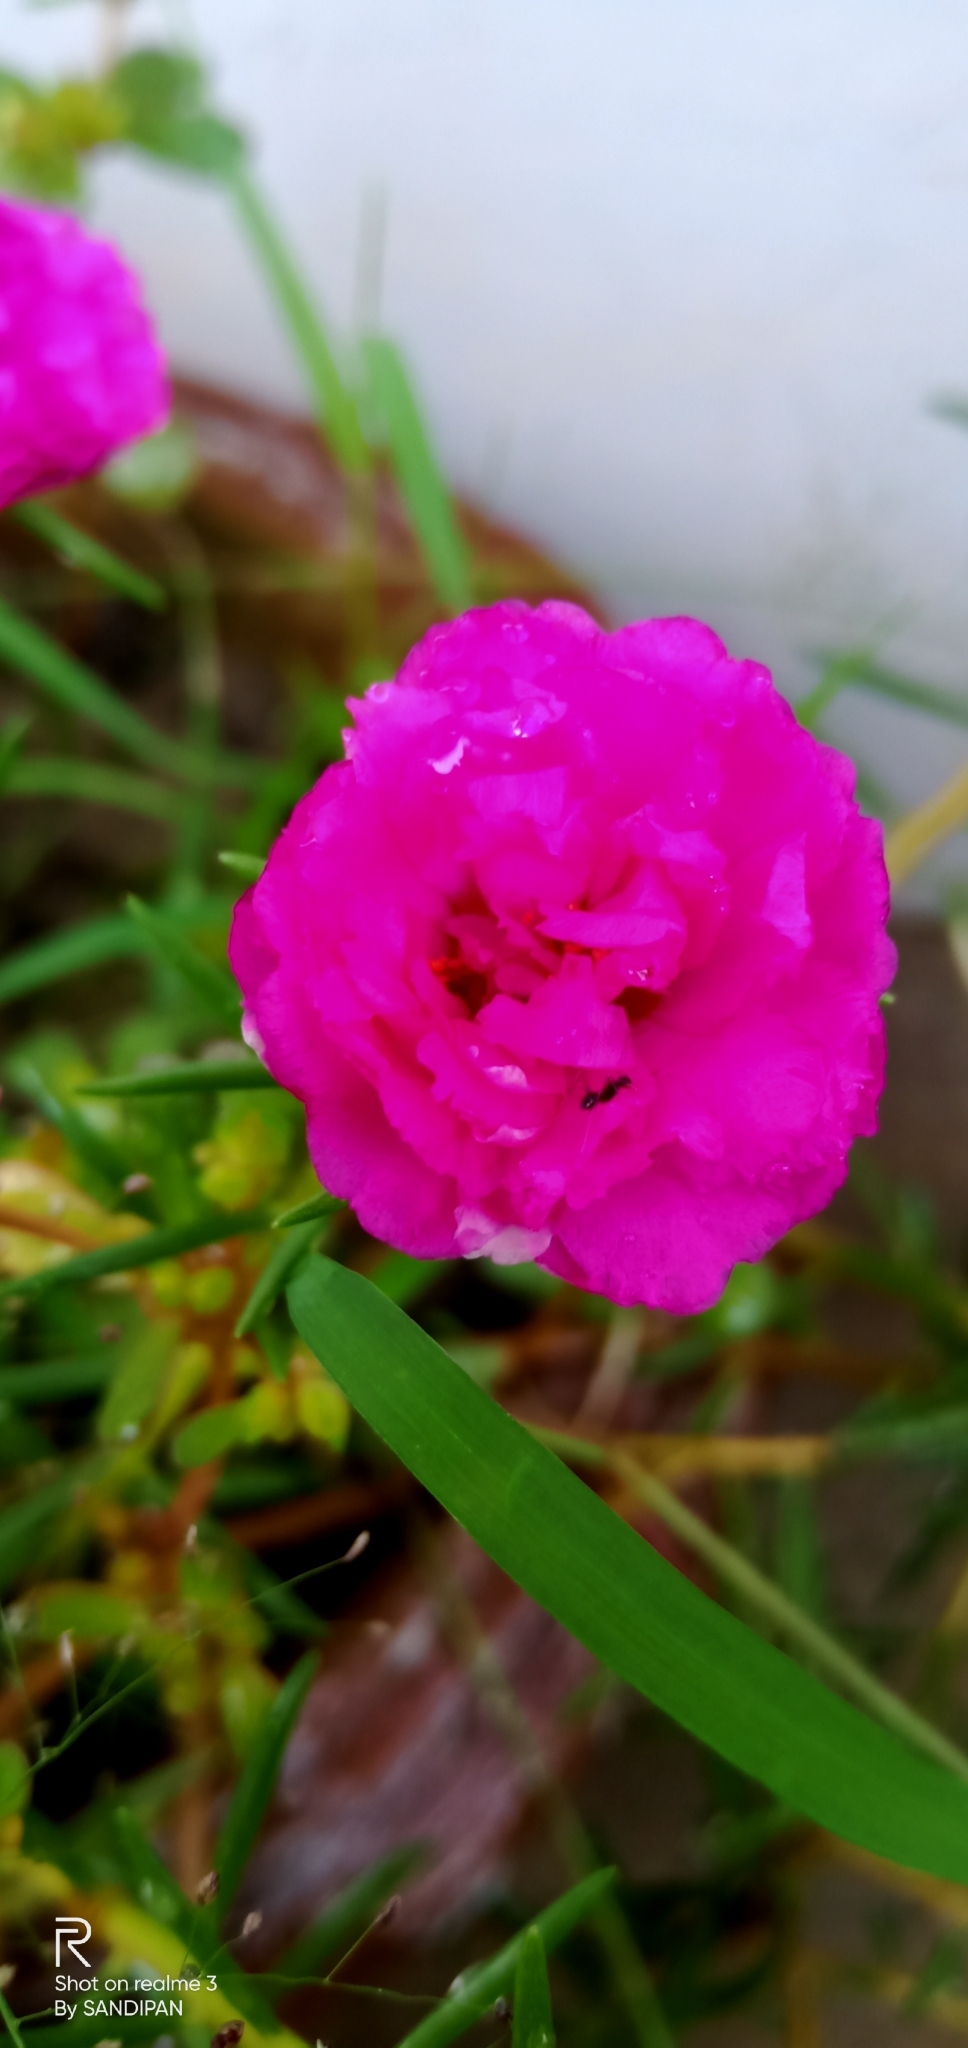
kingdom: Plantae
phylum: Tracheophyta
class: Magnoliopsida
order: Caryophyllales
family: Portulacaceae
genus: Portulaca
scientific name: Portulaca grandiflora
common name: Moss-rose
